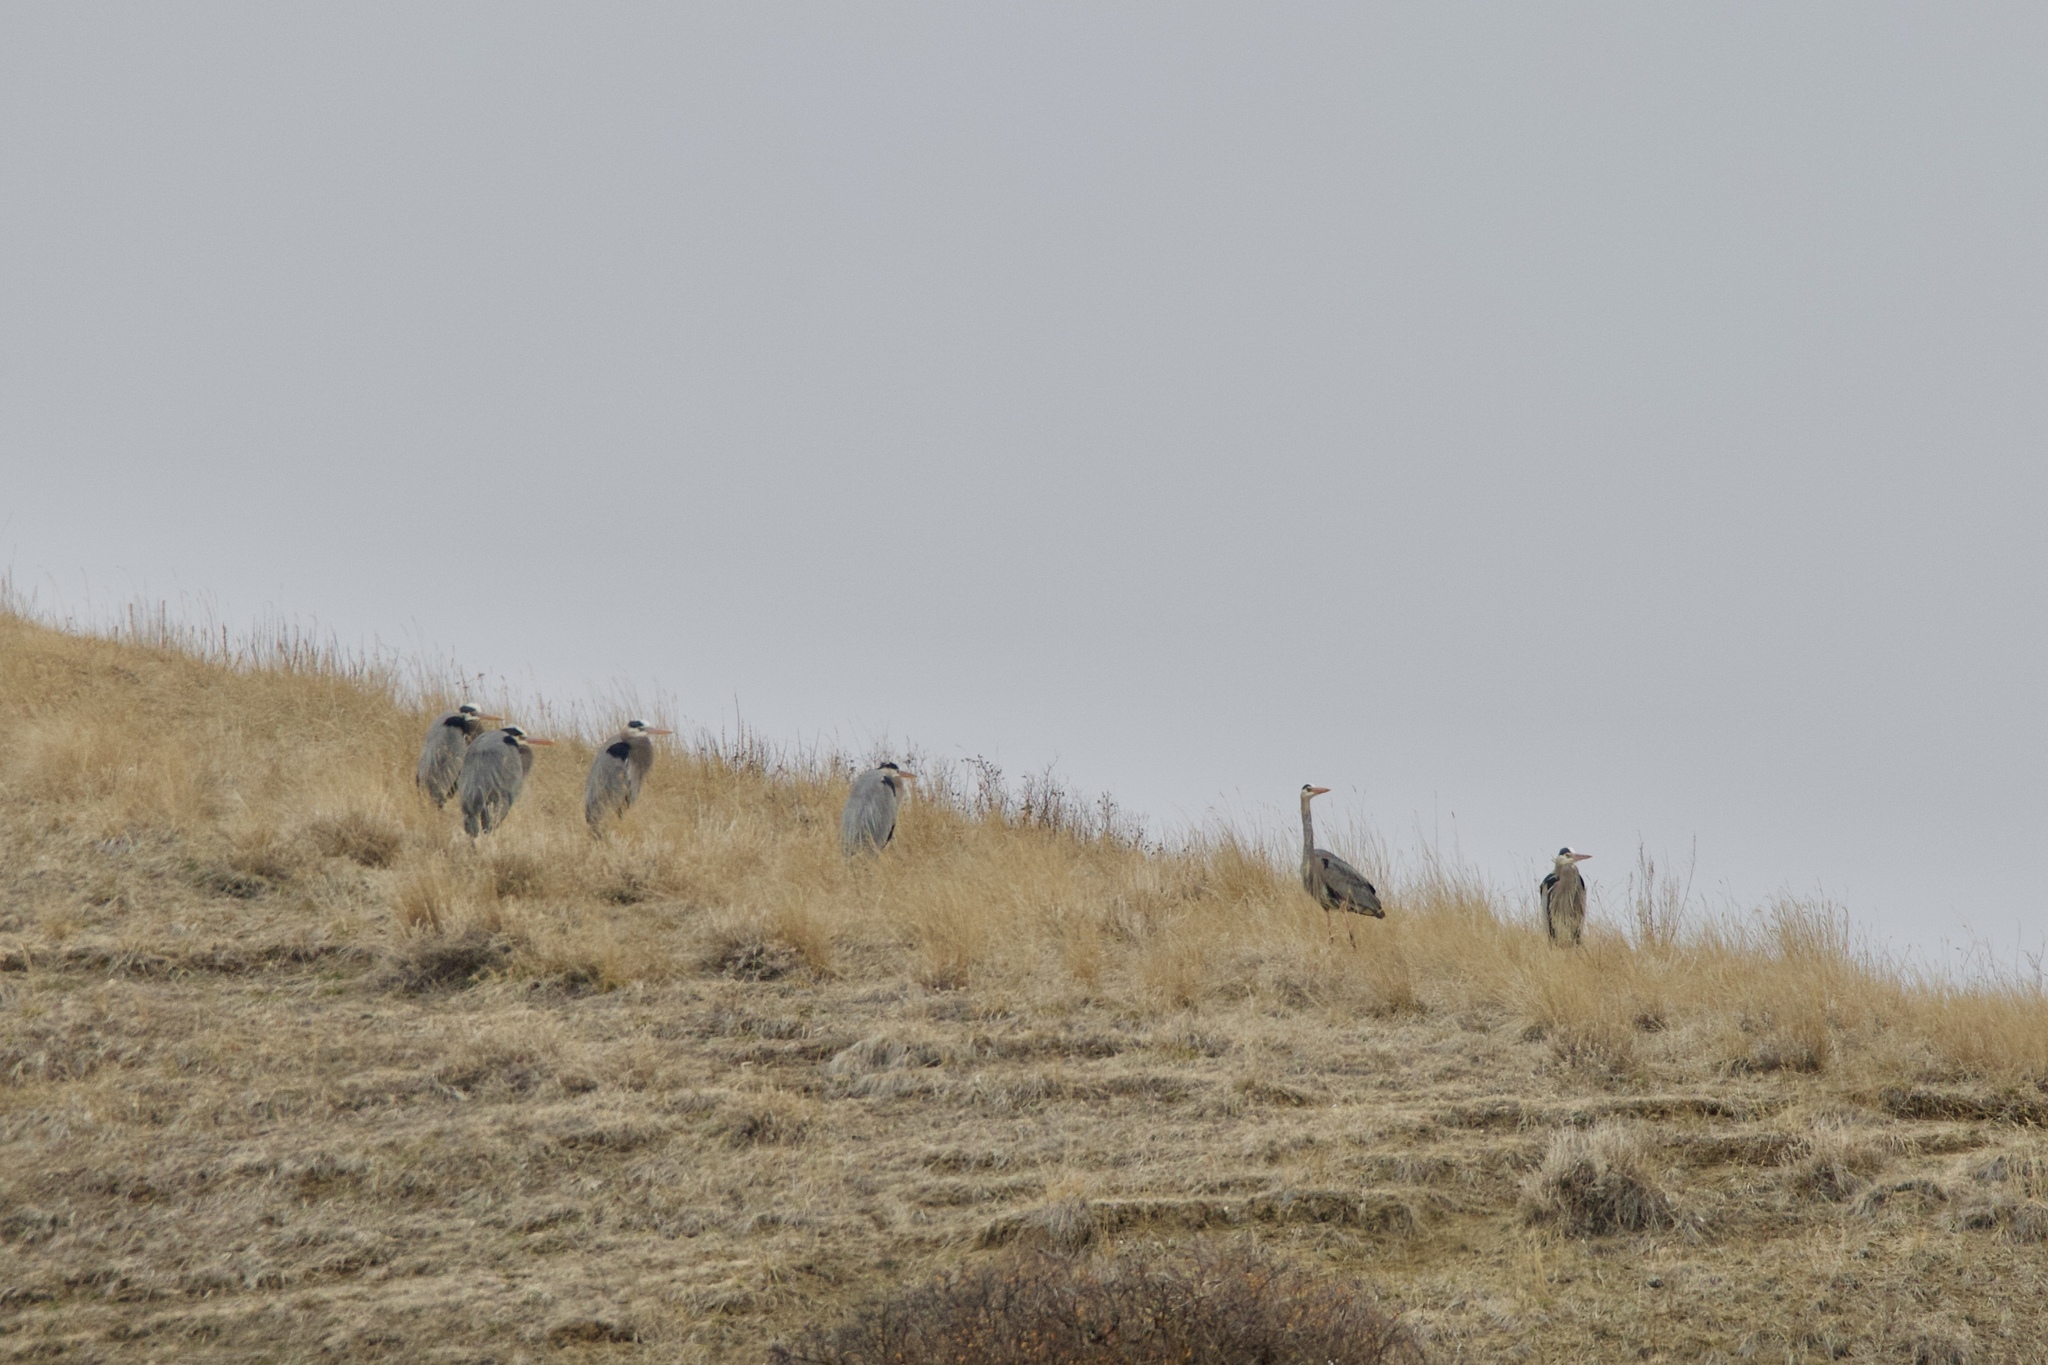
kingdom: Animalia
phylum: Chordata
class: Aves
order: Pelecaniformes
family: Ardeidae
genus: Ardea
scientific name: Ardea herodias
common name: Great blue heron
